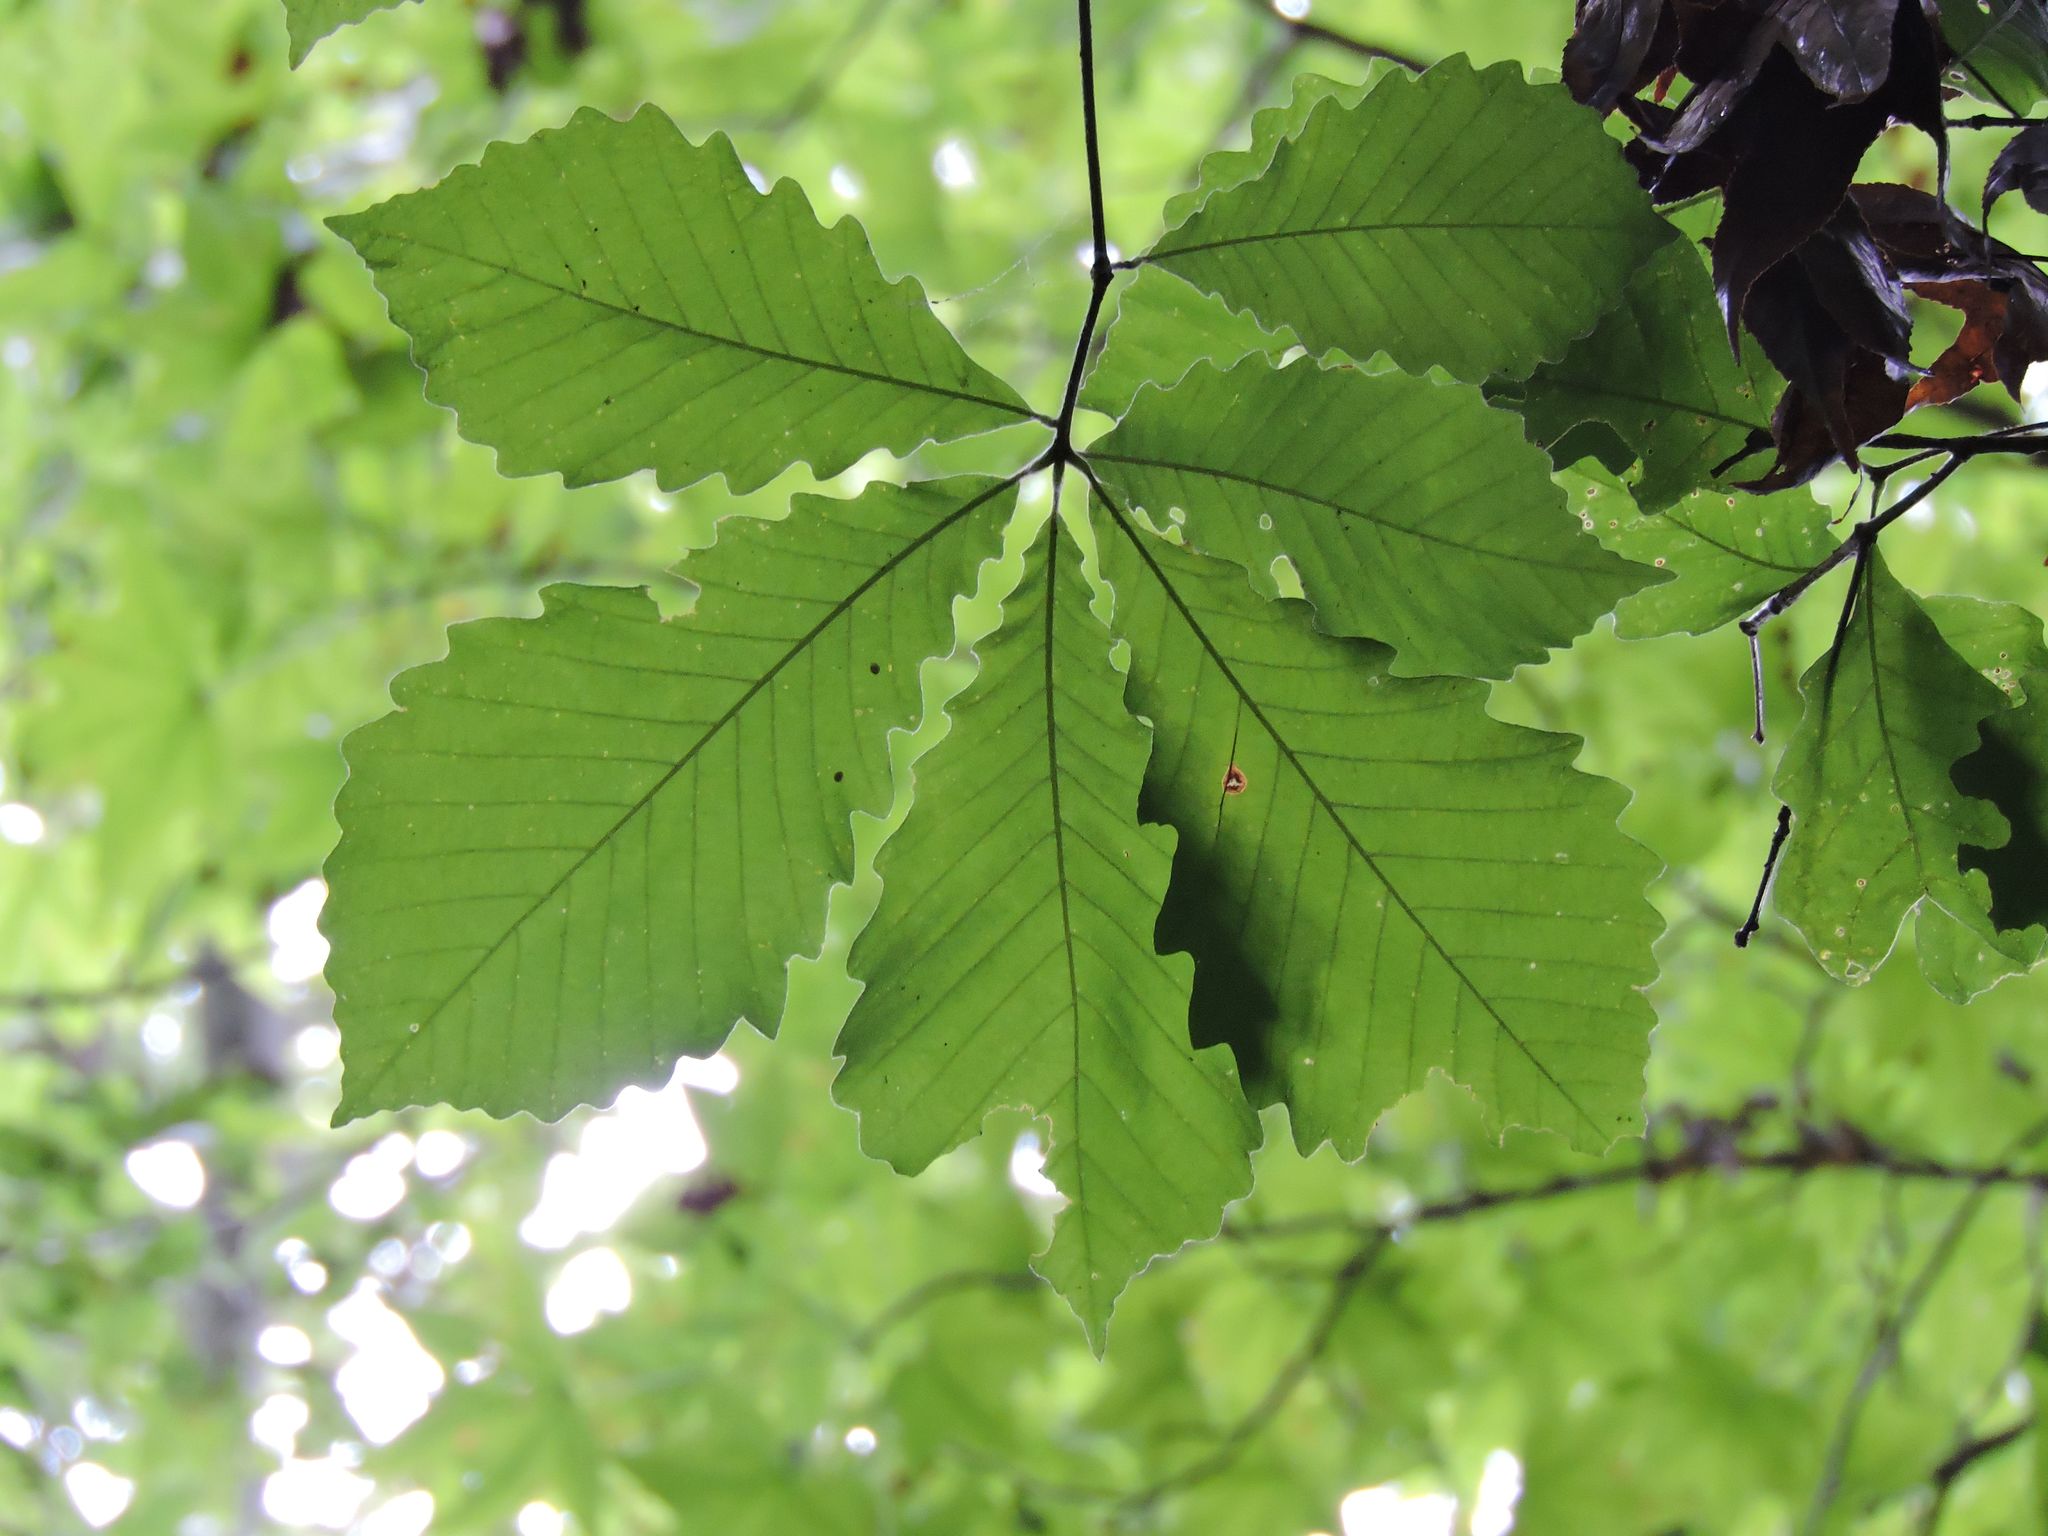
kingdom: Plantae
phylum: Tracheophyta
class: Magnoliopsida
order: Fagales
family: Fagaceae
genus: Quercus
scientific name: Quercus michauxii
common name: Swamp chestnut oak
